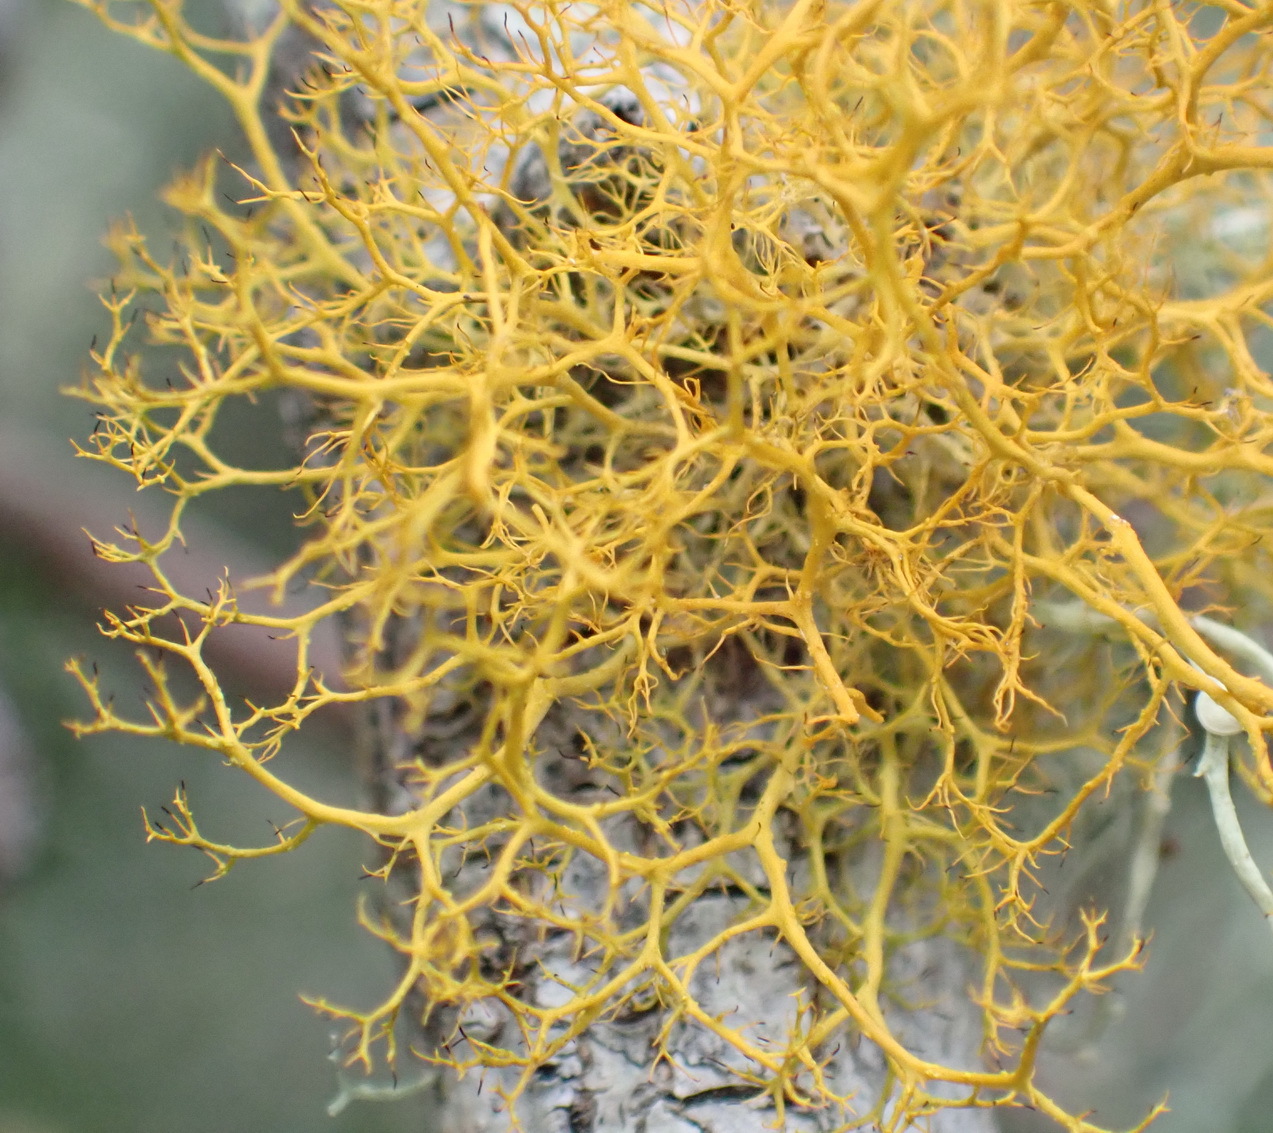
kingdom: Fungi
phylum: Ascomycota
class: Lecanoromycetes
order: Teloschistales
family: Teloschistaceae
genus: Teloschistes
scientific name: Teloschistes capensis
